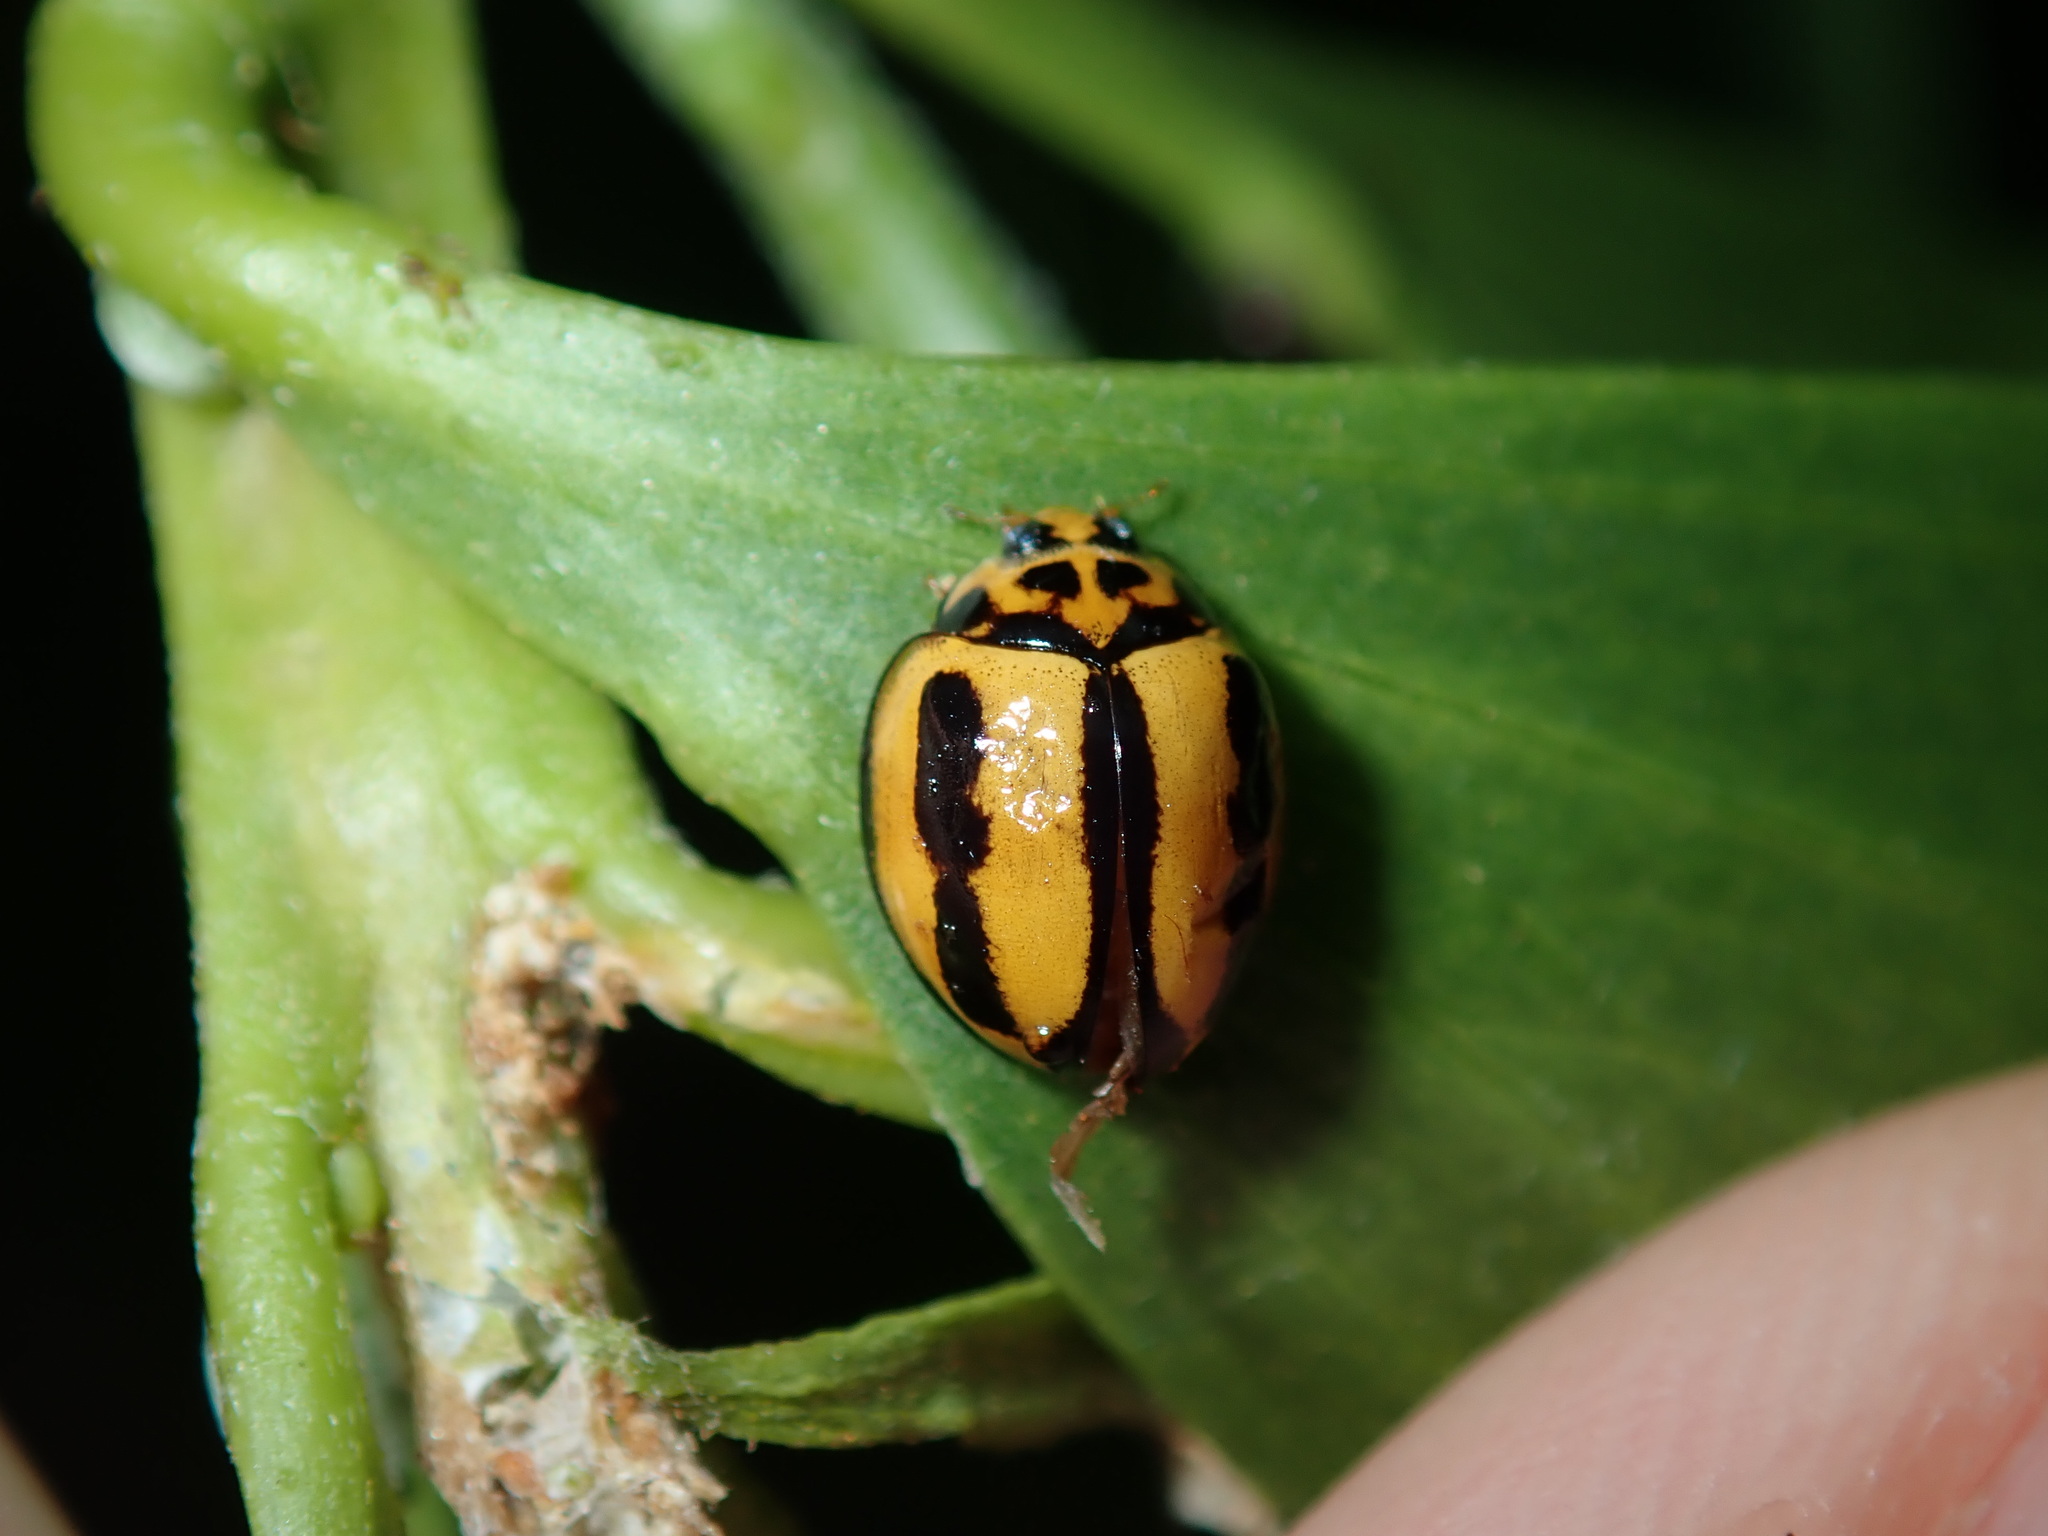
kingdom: Animalia
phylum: Arthropoda
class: Insecta
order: Coleoptera
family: Coccinellidae
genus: Coelophora
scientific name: Coelophora inaequalis
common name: Common australian lady beetle
